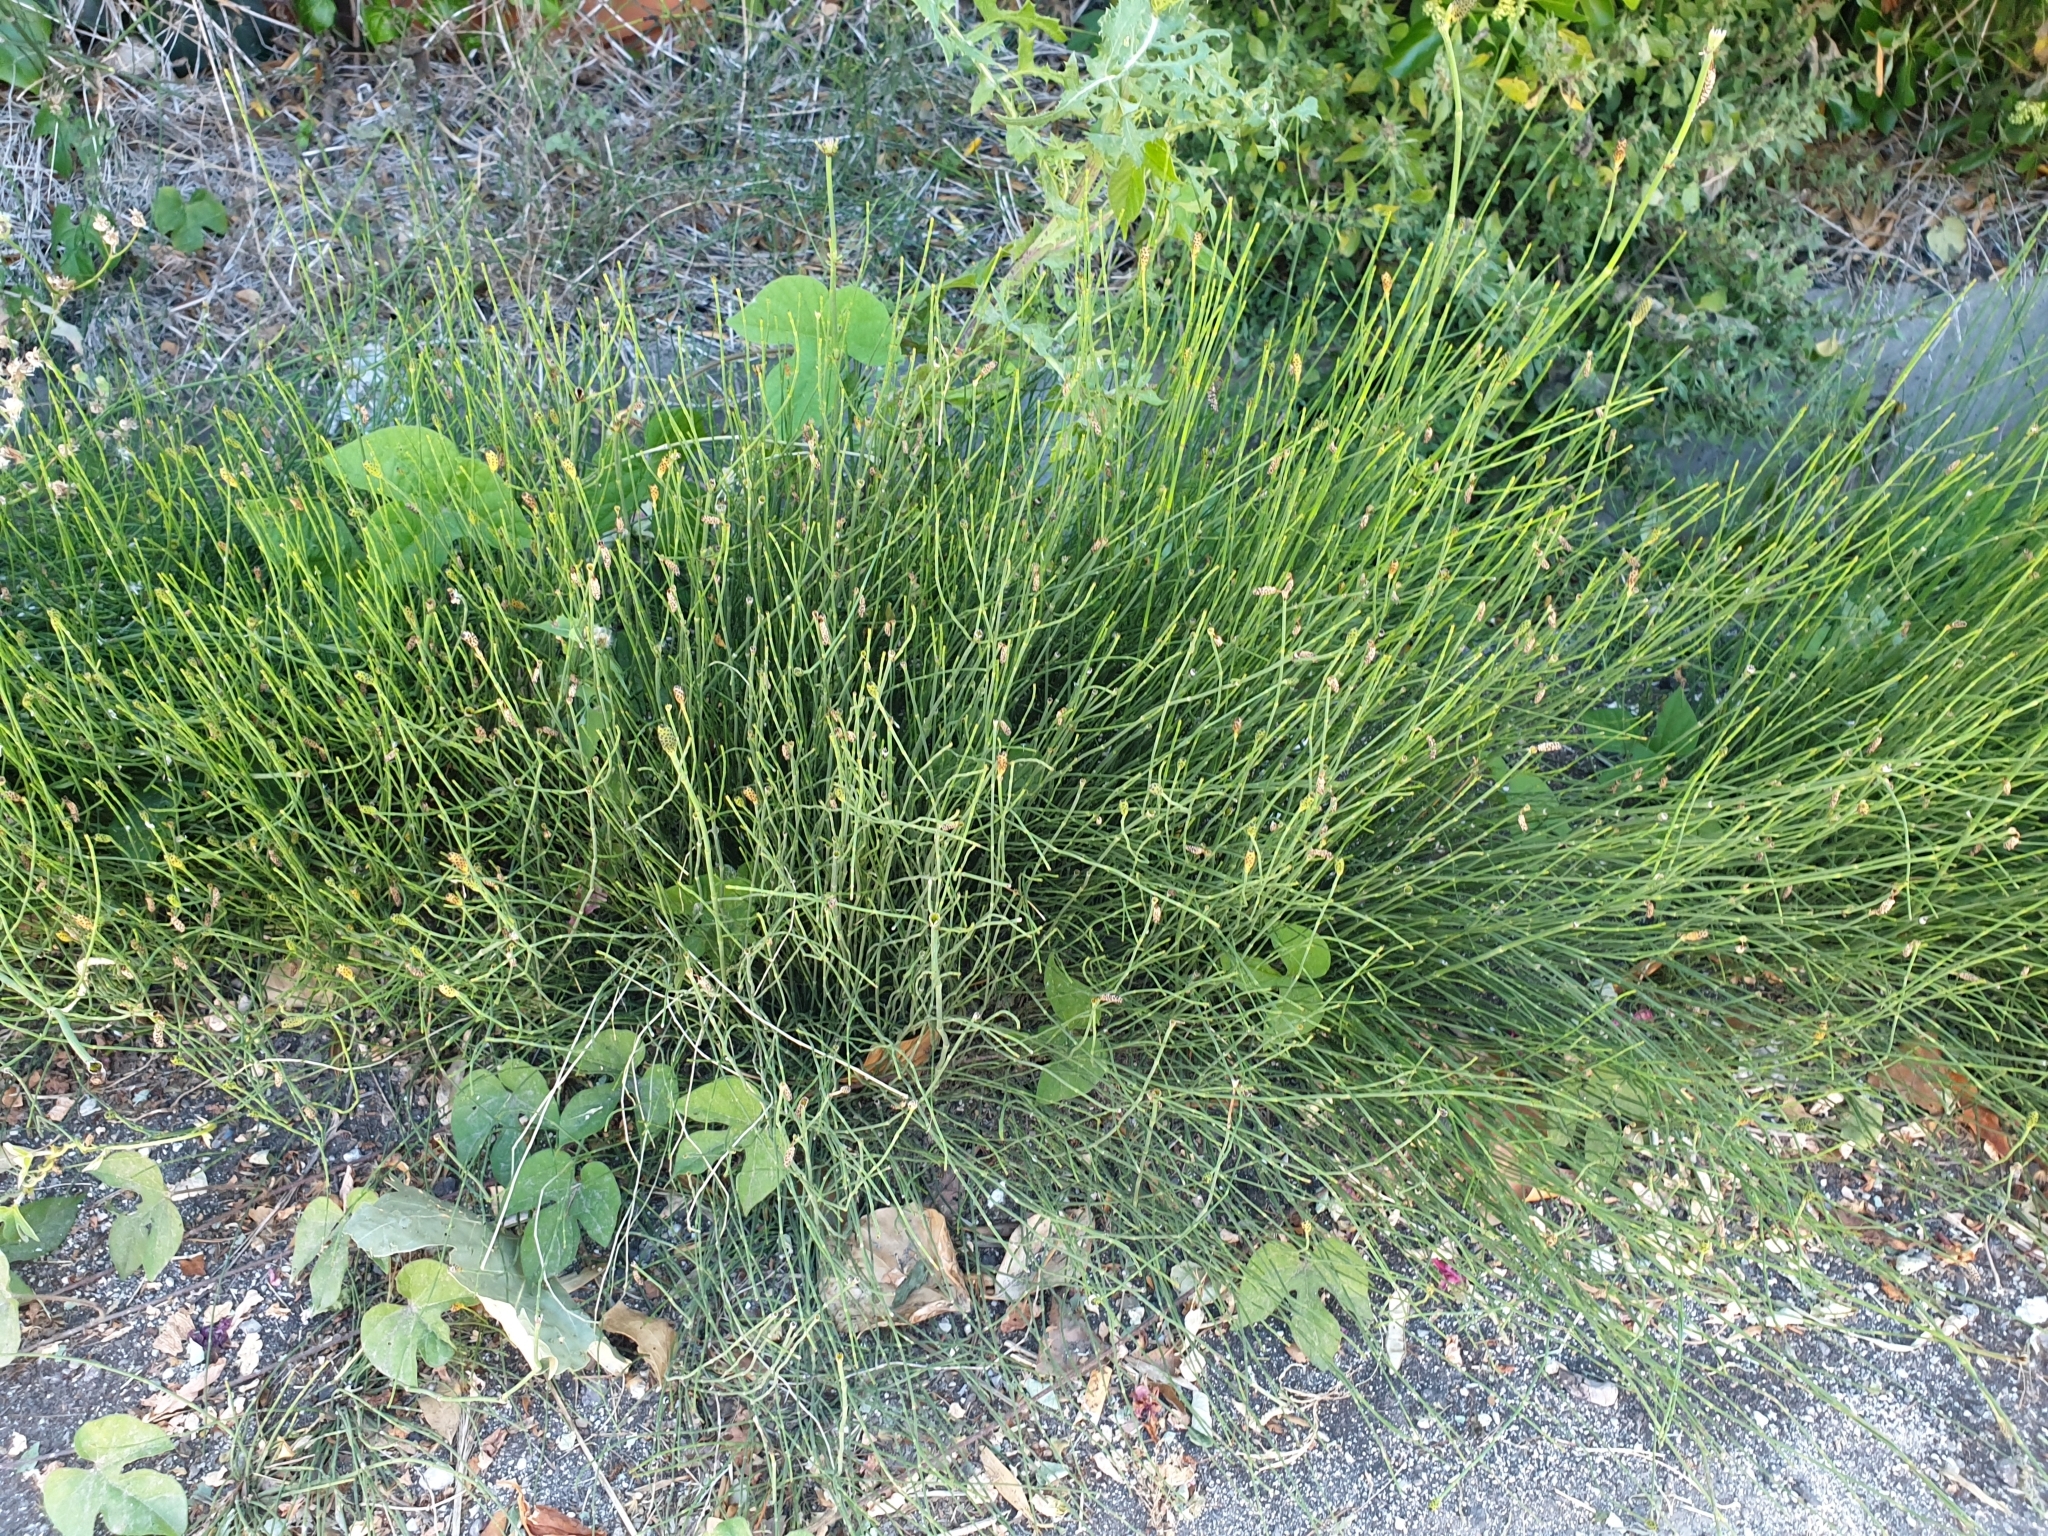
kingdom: Plantae
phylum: Tracheophyta
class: Polypodiopsida
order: Equisetales
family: Equisetaceae
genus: Equisetum
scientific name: Equisetum ramosissimum
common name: Branched horsetail
